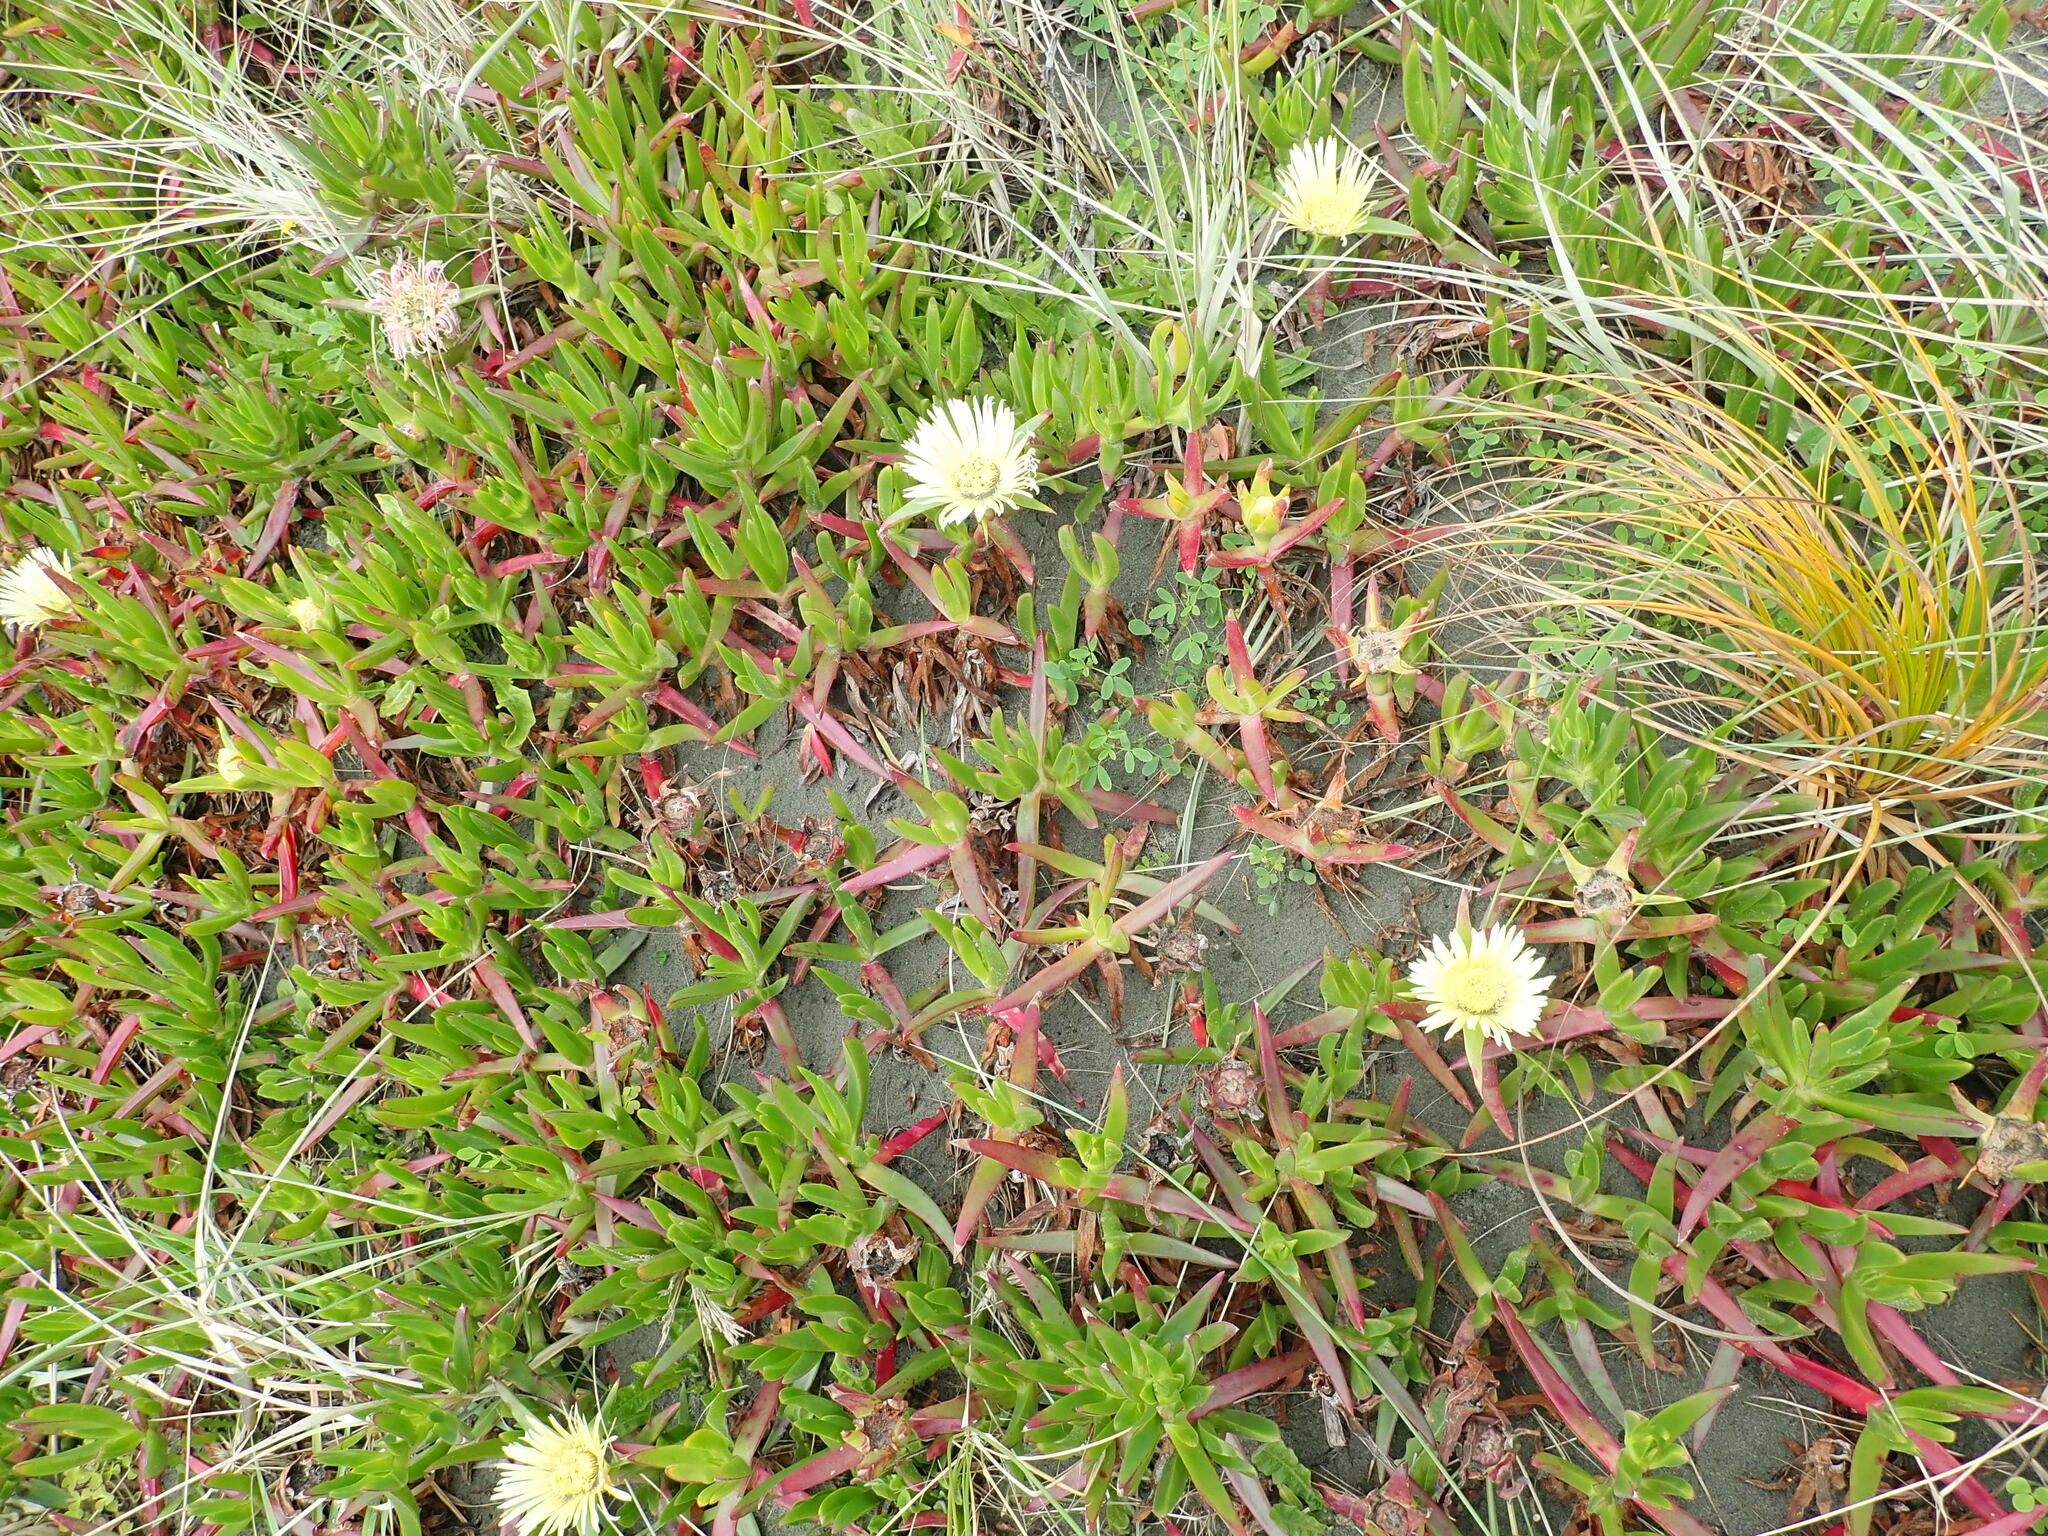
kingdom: Plantae
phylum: Tracheophyta
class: Magnoliopsida
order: Caryophyllales
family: Aizoaceae
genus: Carpobrotus
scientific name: Carpobrotus edulis
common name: Hottentot-fig
